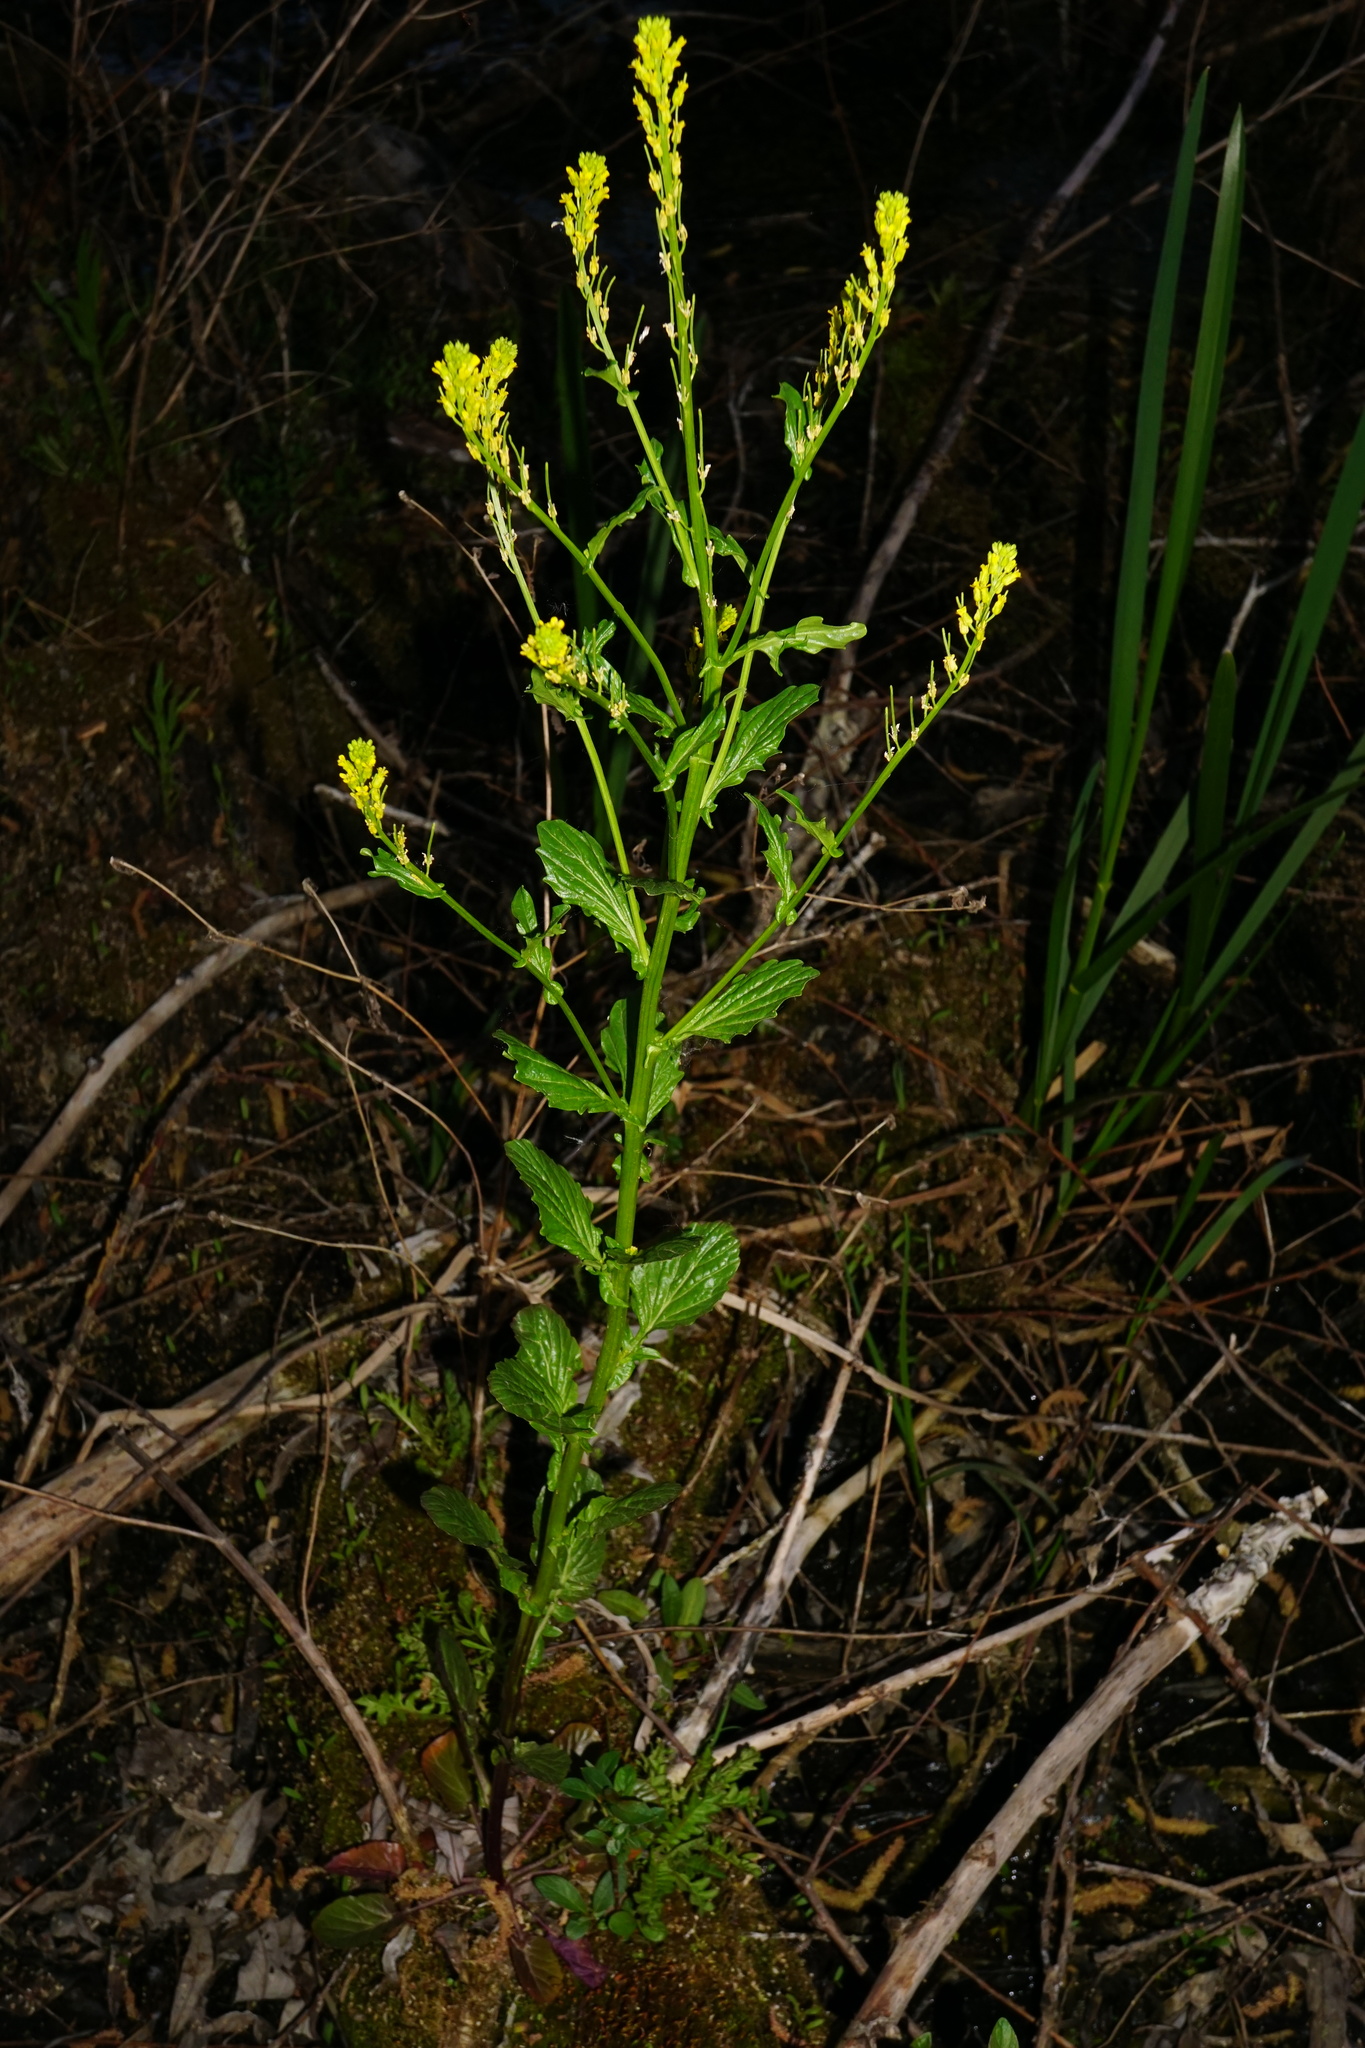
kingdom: Plantae
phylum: Tracheophyta
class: Magnoliopsida
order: Brassicales
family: Brassicaceae
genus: Barbarea
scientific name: Barbarea stricta
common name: Small-flowered winter-cress
